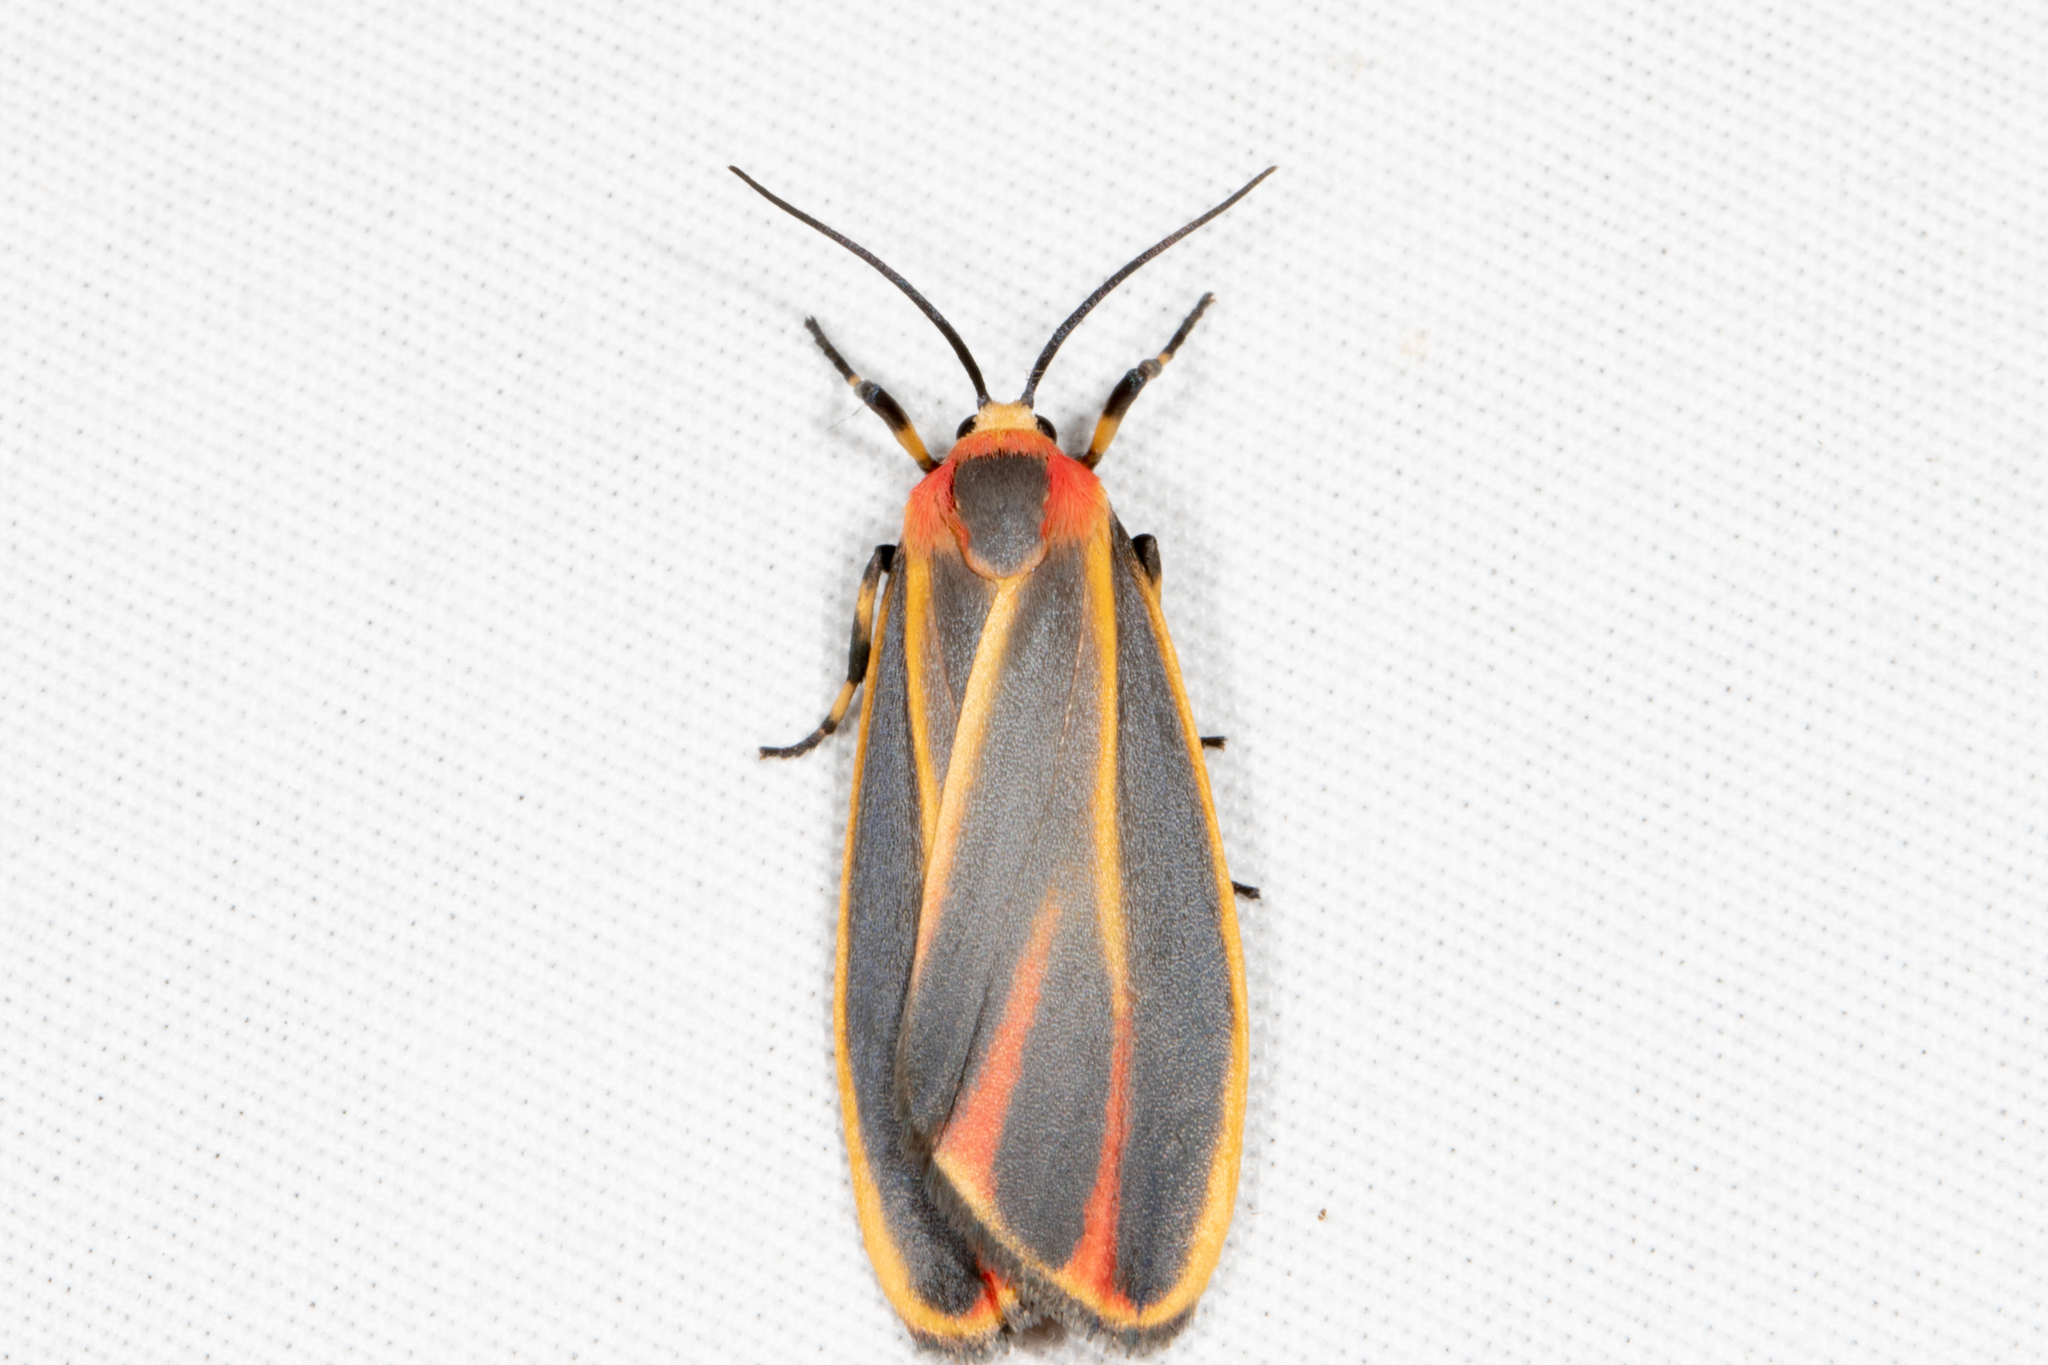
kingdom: Animalia
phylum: Arthropoda
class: Insecta
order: Lepidoptera
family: Erebidae
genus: Hypoprepia
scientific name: Hypoprepia fucosa
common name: Painted lichen moth
